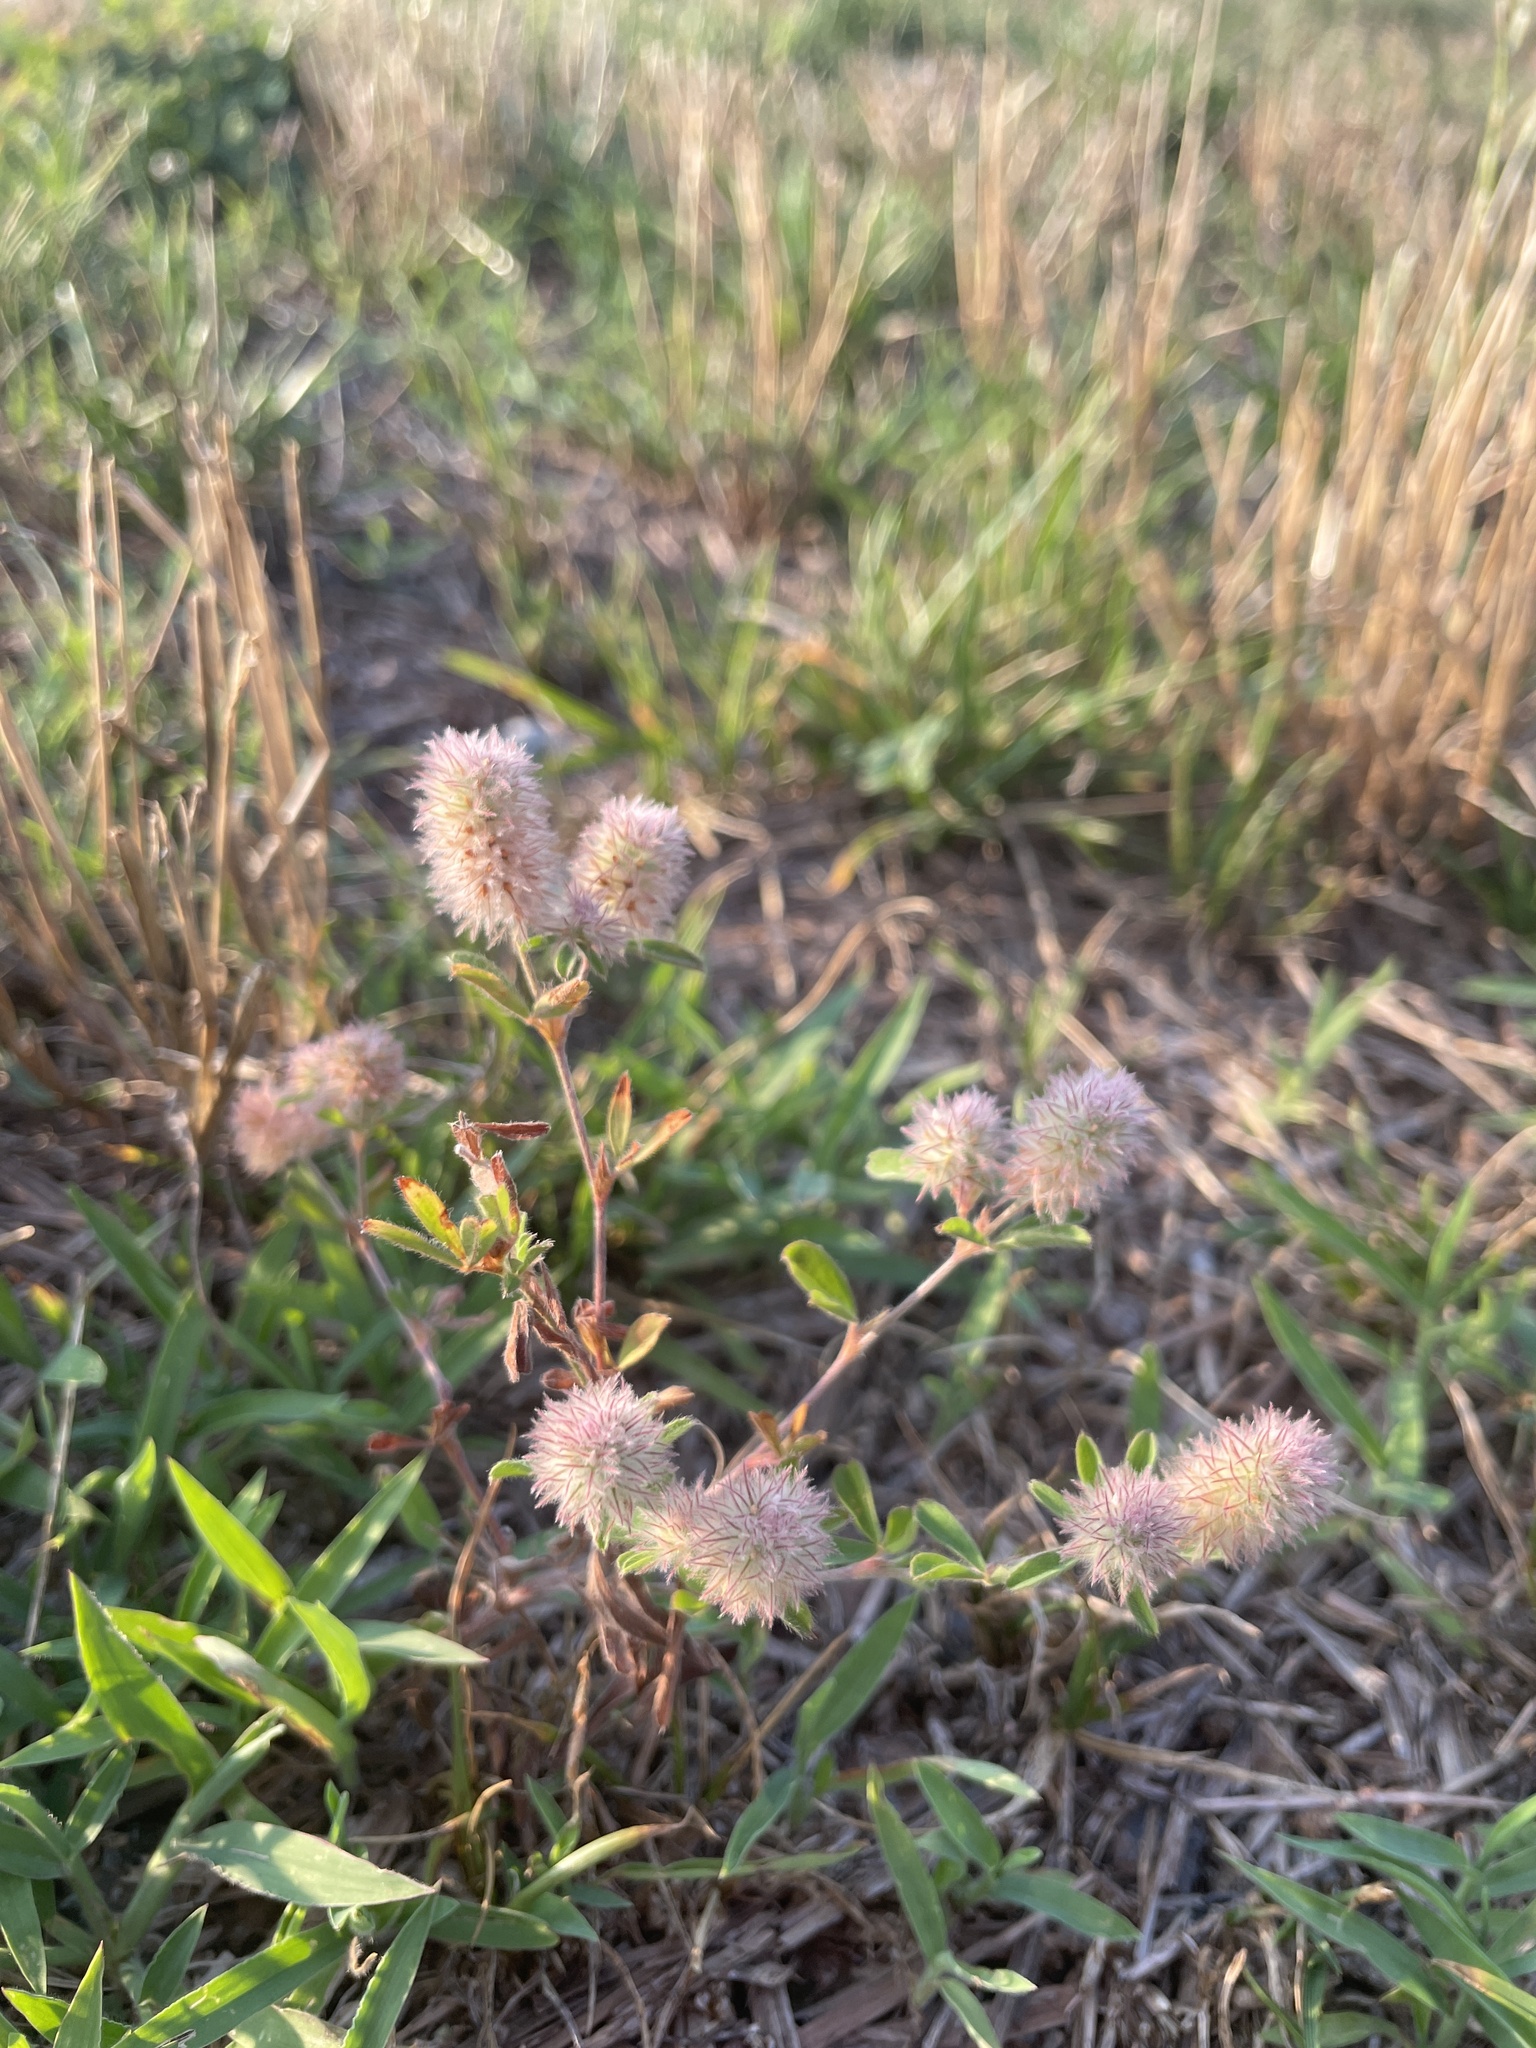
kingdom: Plantae
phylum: Tracheophyta
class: Magnoliopsida
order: Fabales
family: Fabaceae
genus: Trifolium
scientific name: Trifolium arvense
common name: Hare's-foot clover
